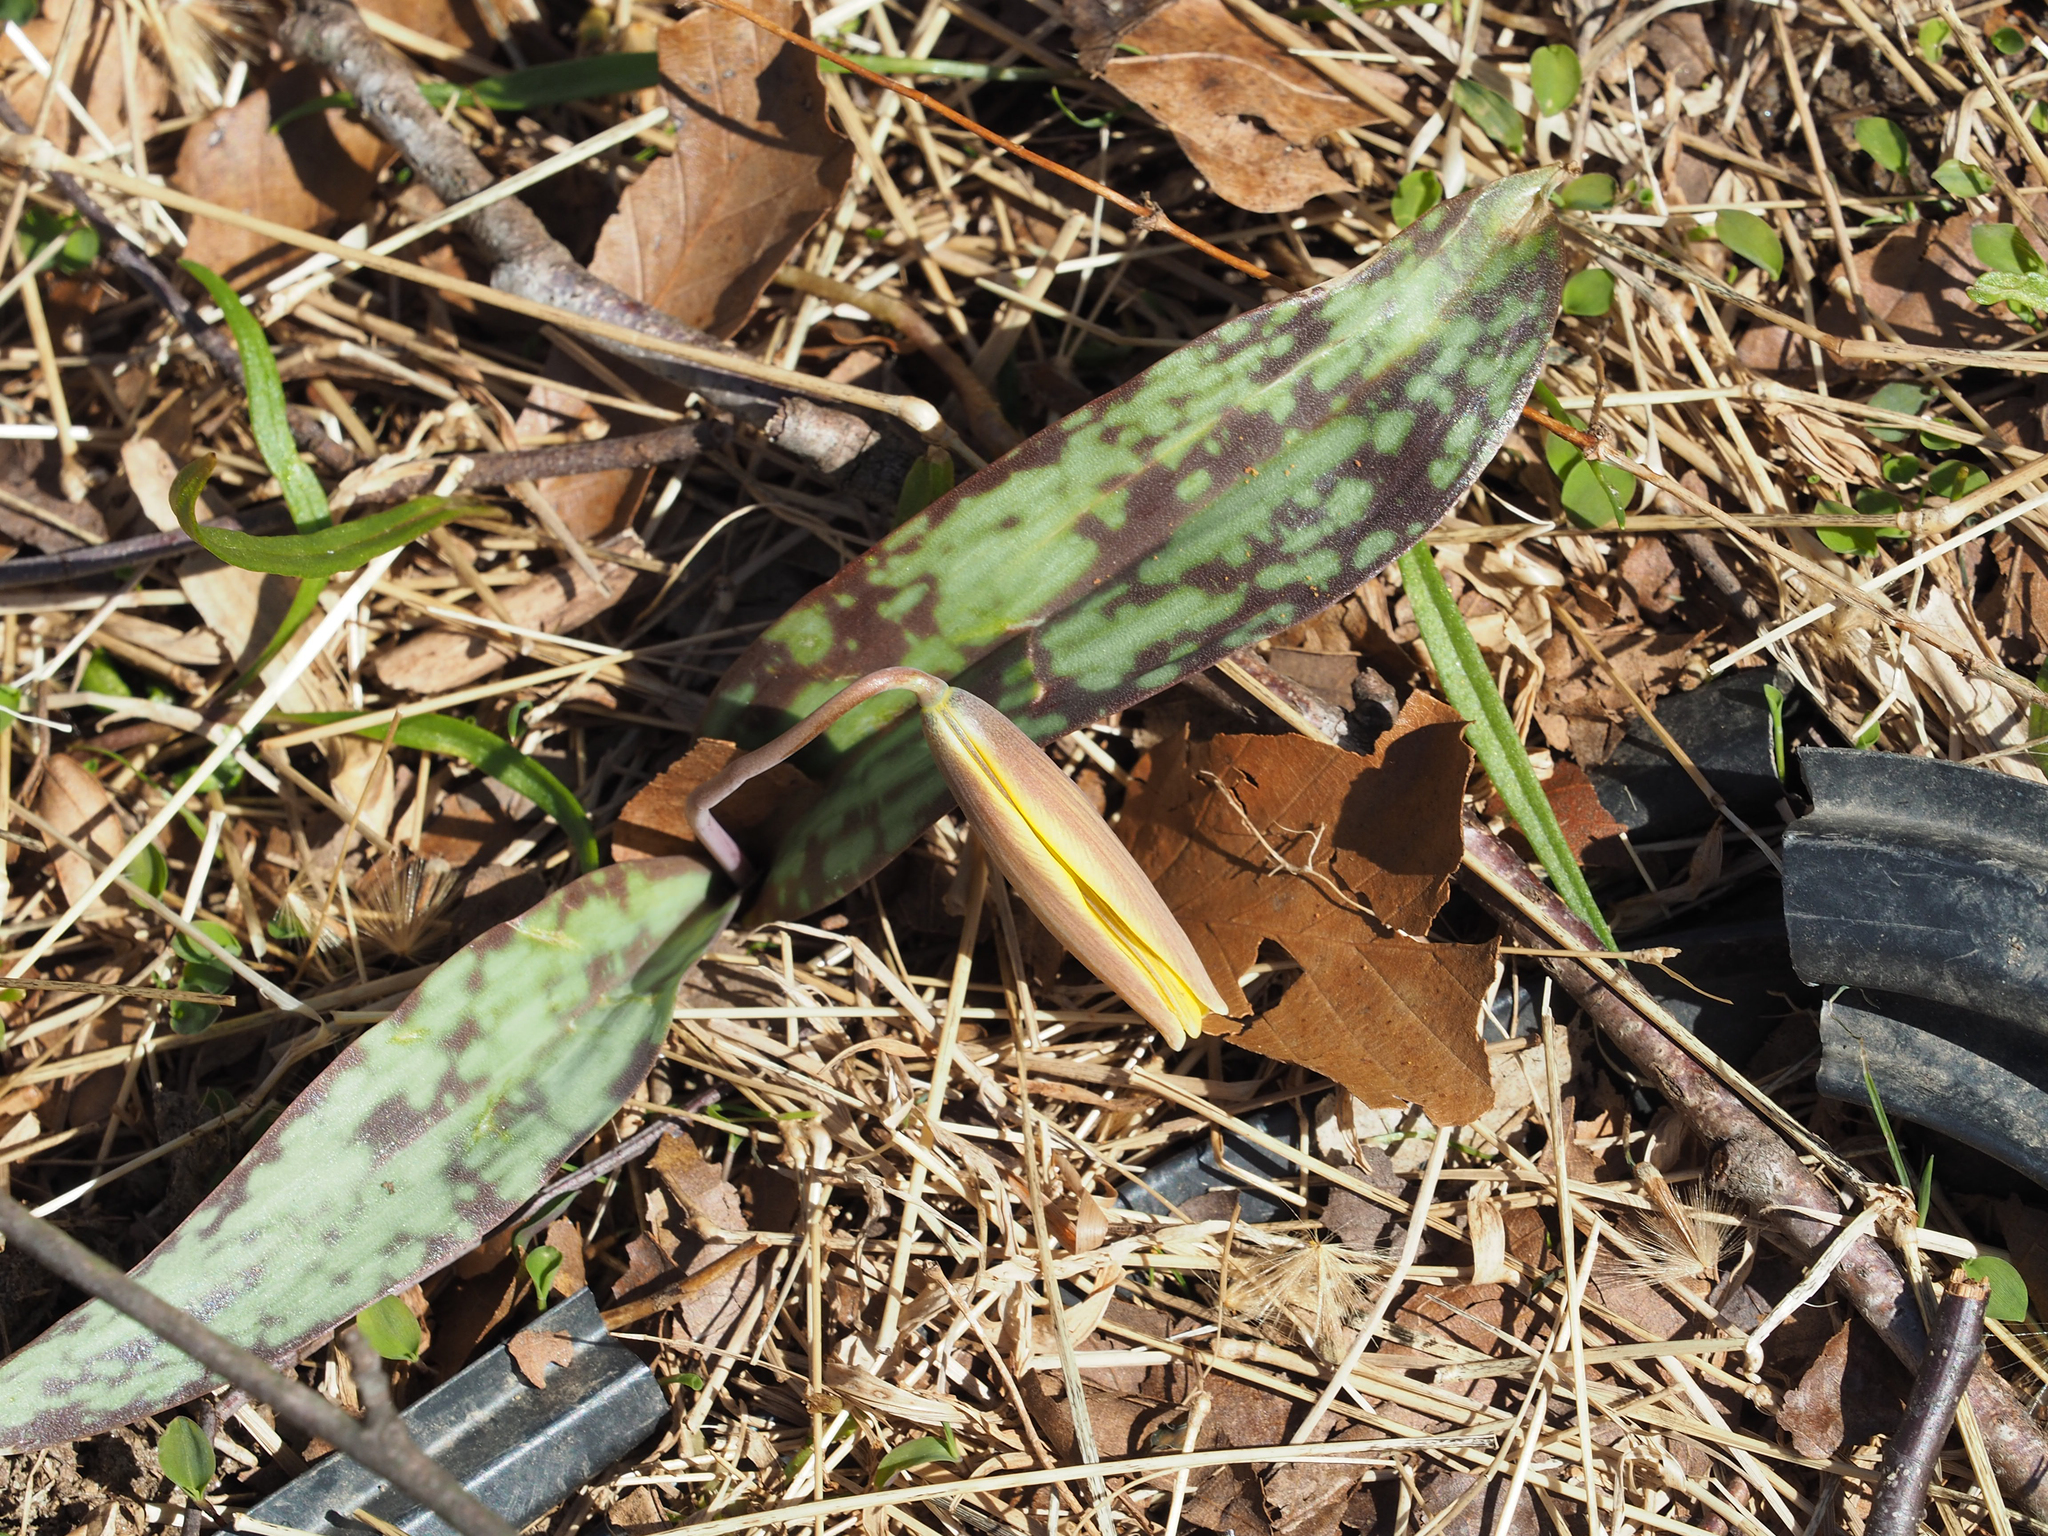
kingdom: Plantae
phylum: Tracheophyta
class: Liliopsida
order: Liliales
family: Liliaceae
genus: Erythronium
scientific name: Erythronium americanum
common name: Yellow adder's-tongue
